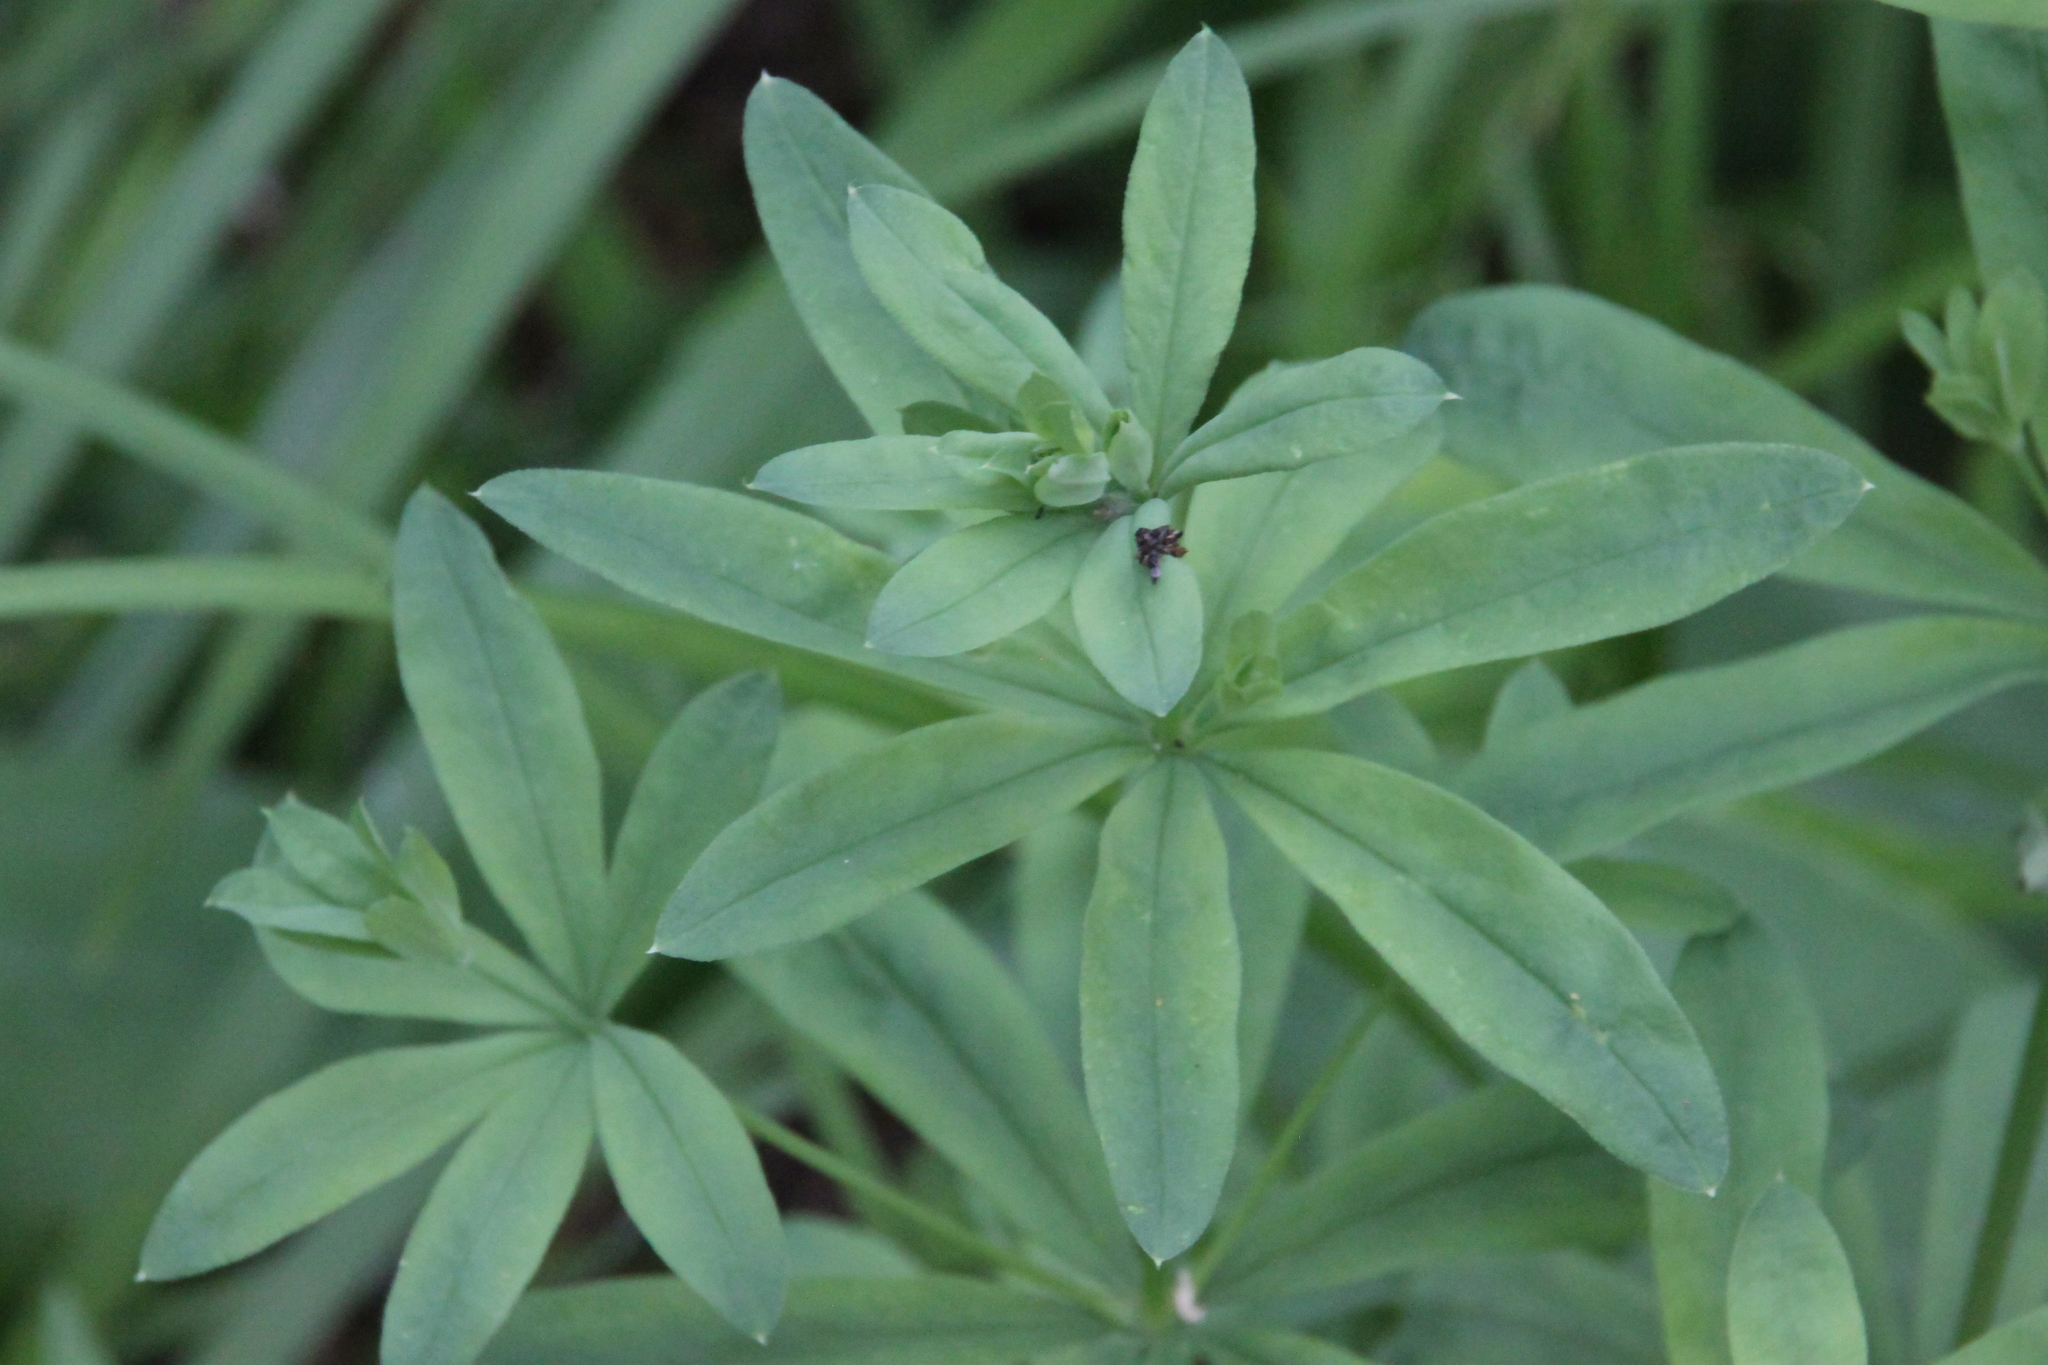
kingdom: Plantae
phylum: Tracheophyta
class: Magnoliopsida
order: Gentianales
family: Rubiaceae
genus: Galium
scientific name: Galium intermedium
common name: Bedstraw
